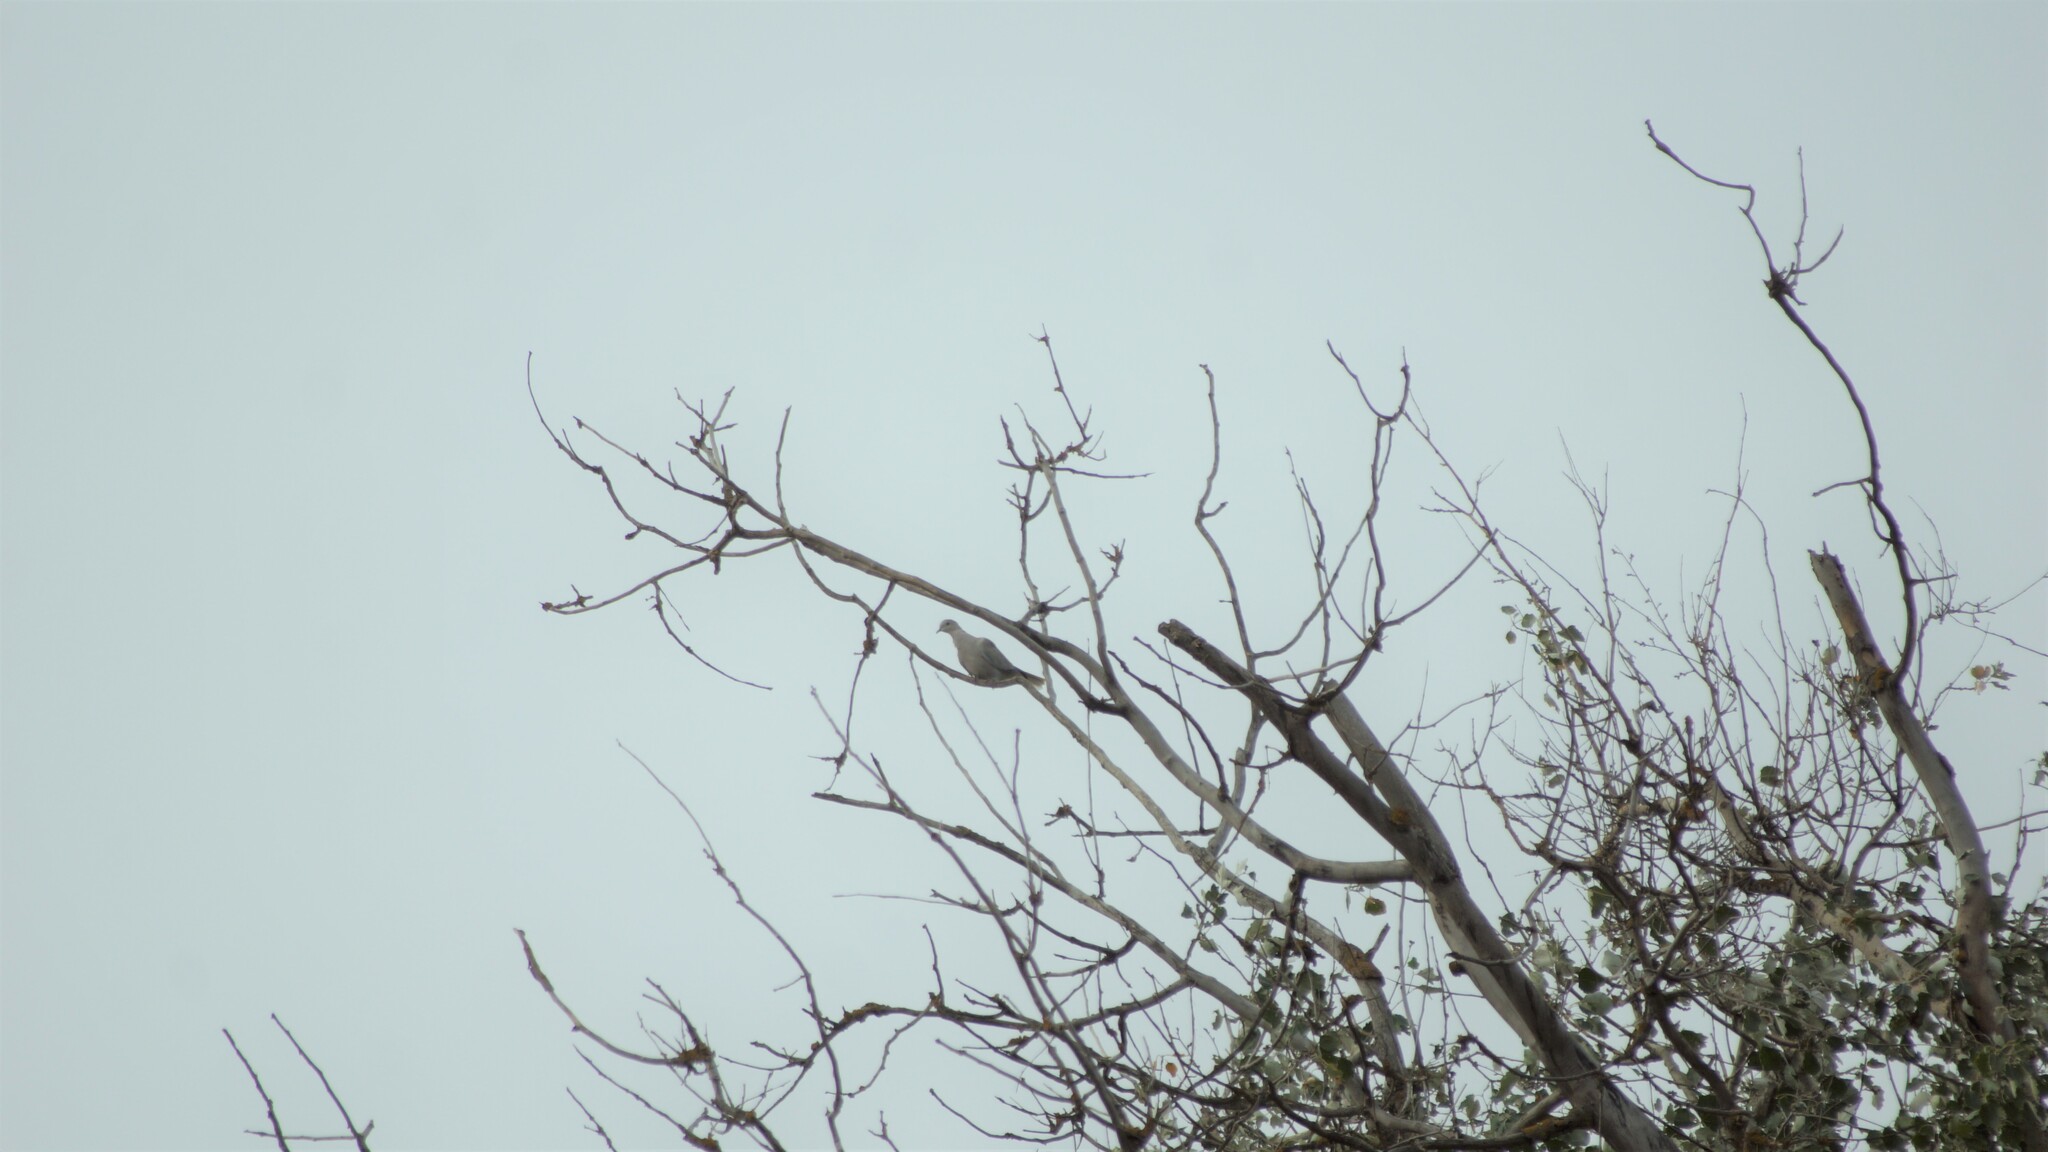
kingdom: Animalia
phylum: Chordata
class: Aves
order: Columbiformes
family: Columbidae
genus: Streptopelia
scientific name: Streptopelia decaocto
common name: Eurasian collared dove
